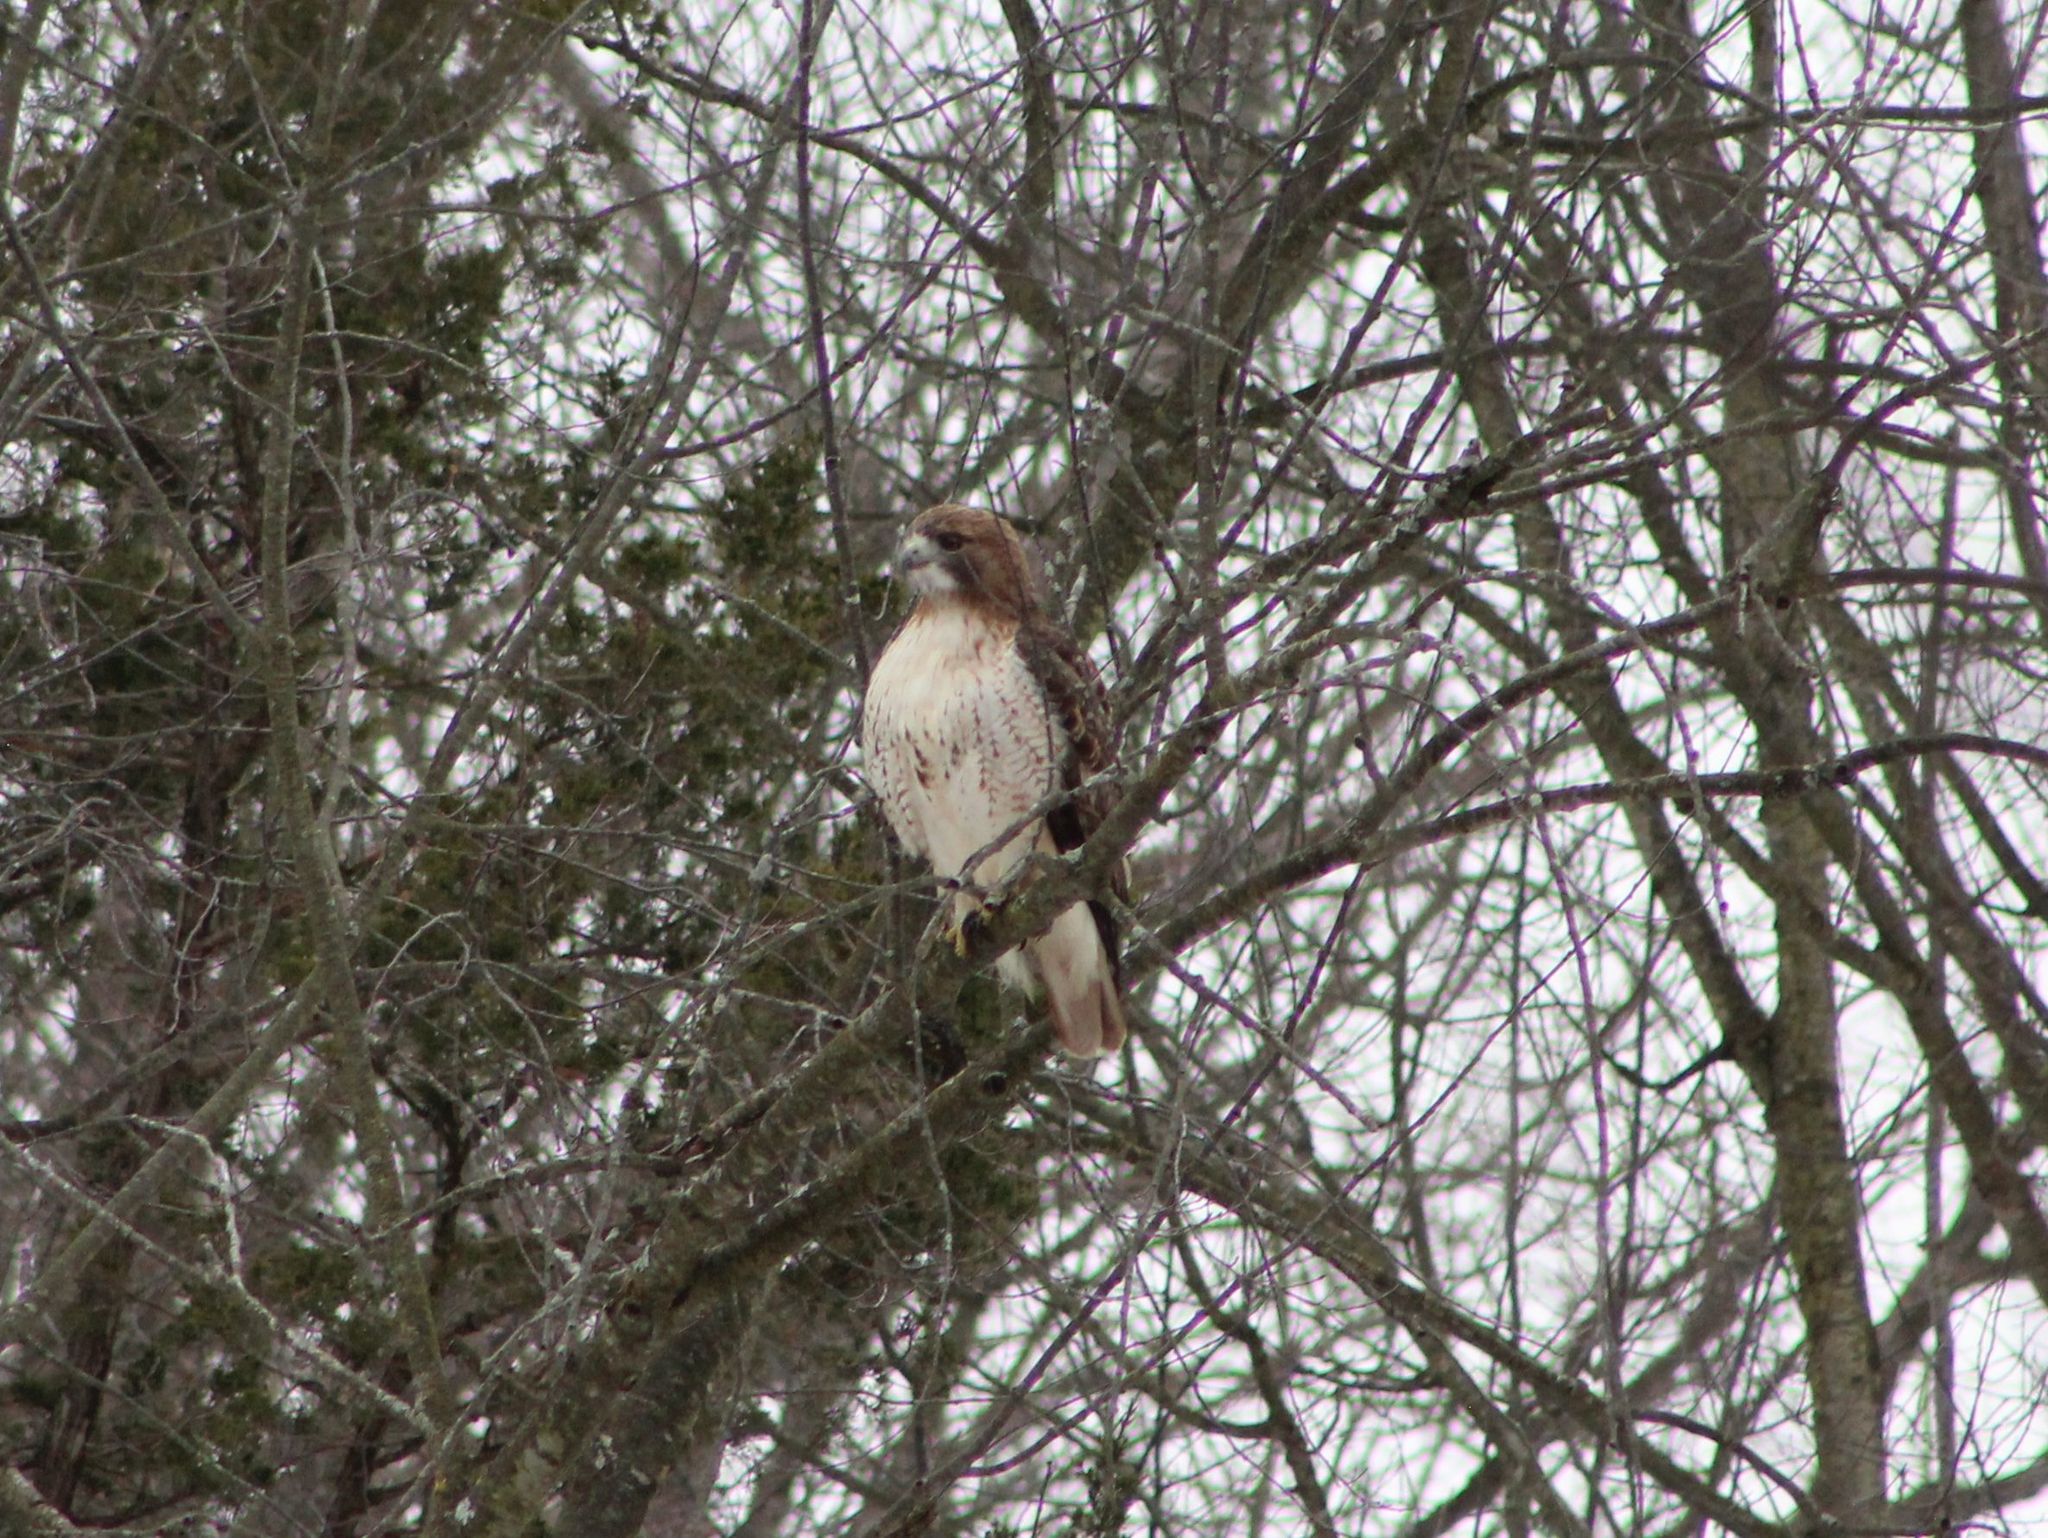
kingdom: Animalia
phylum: Chordata
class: Aves
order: Accipitriformes
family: Accipitridae
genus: Buteo
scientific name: Buteo jamaicensis
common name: Red-tailed hawk
